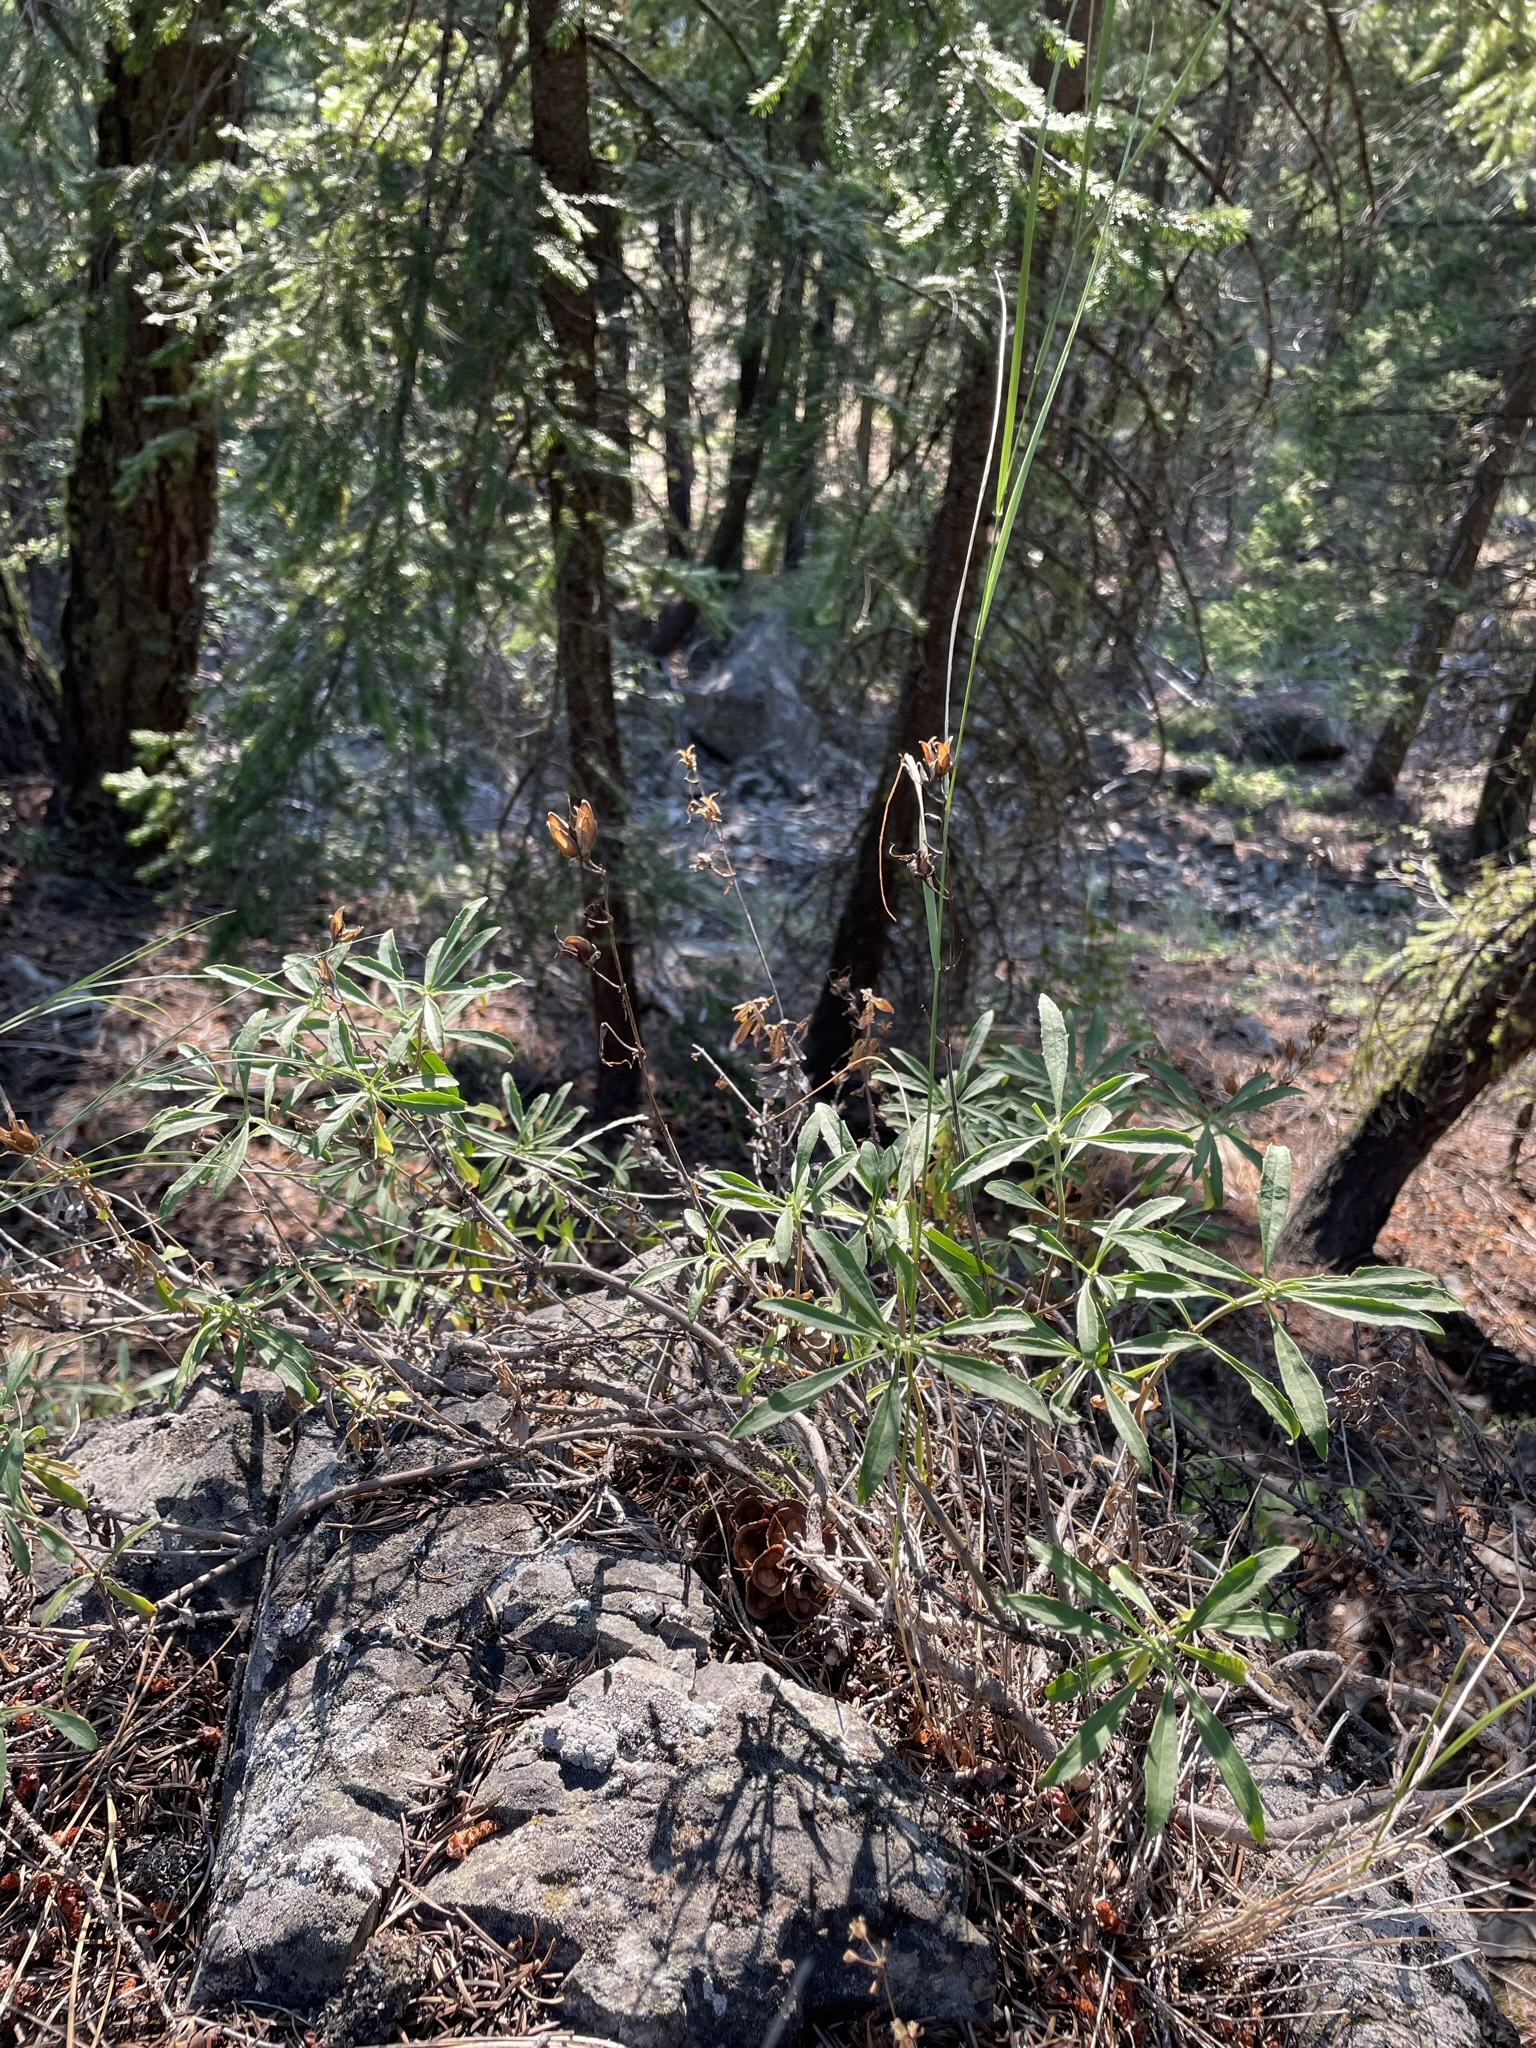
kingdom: Plantae
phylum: Tracheophyta
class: Magnoliopsida
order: Lamiales
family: Plantaginaceae
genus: Penstemon
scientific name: Penstemon fruticosus
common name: Bush penstemon
